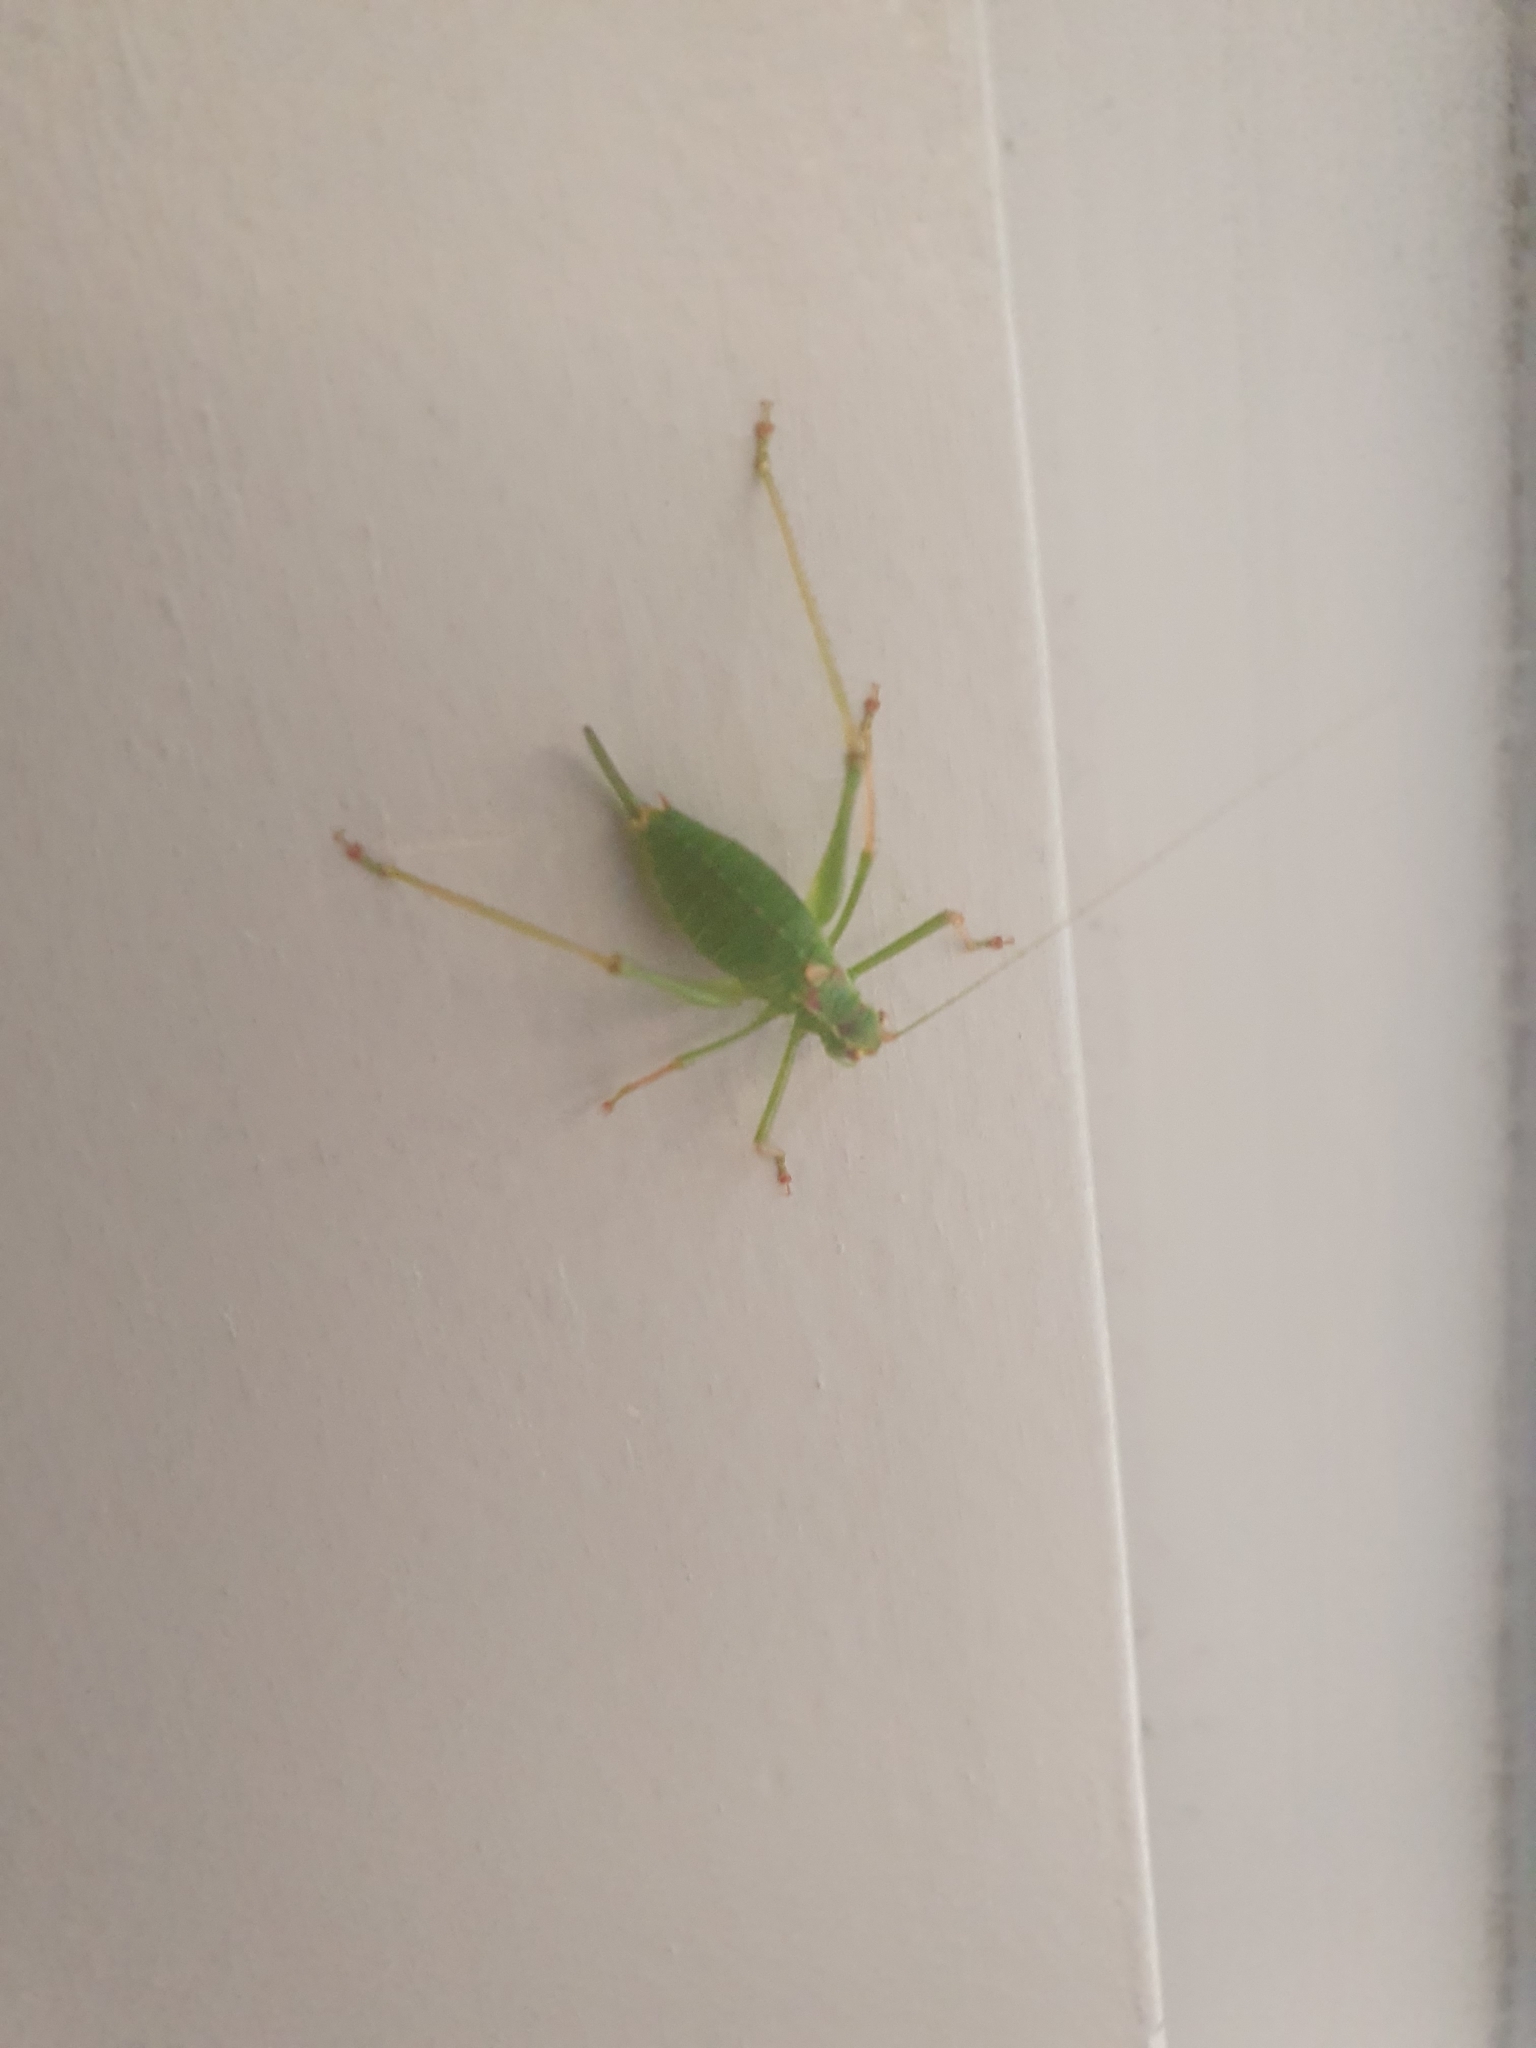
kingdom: Animalia
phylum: Arthropoda
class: Insecta
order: Orthoptera
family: Tettigoniidae
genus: Leptophyes
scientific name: Leptophyes punctatissima
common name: Speckled bush-cricket
